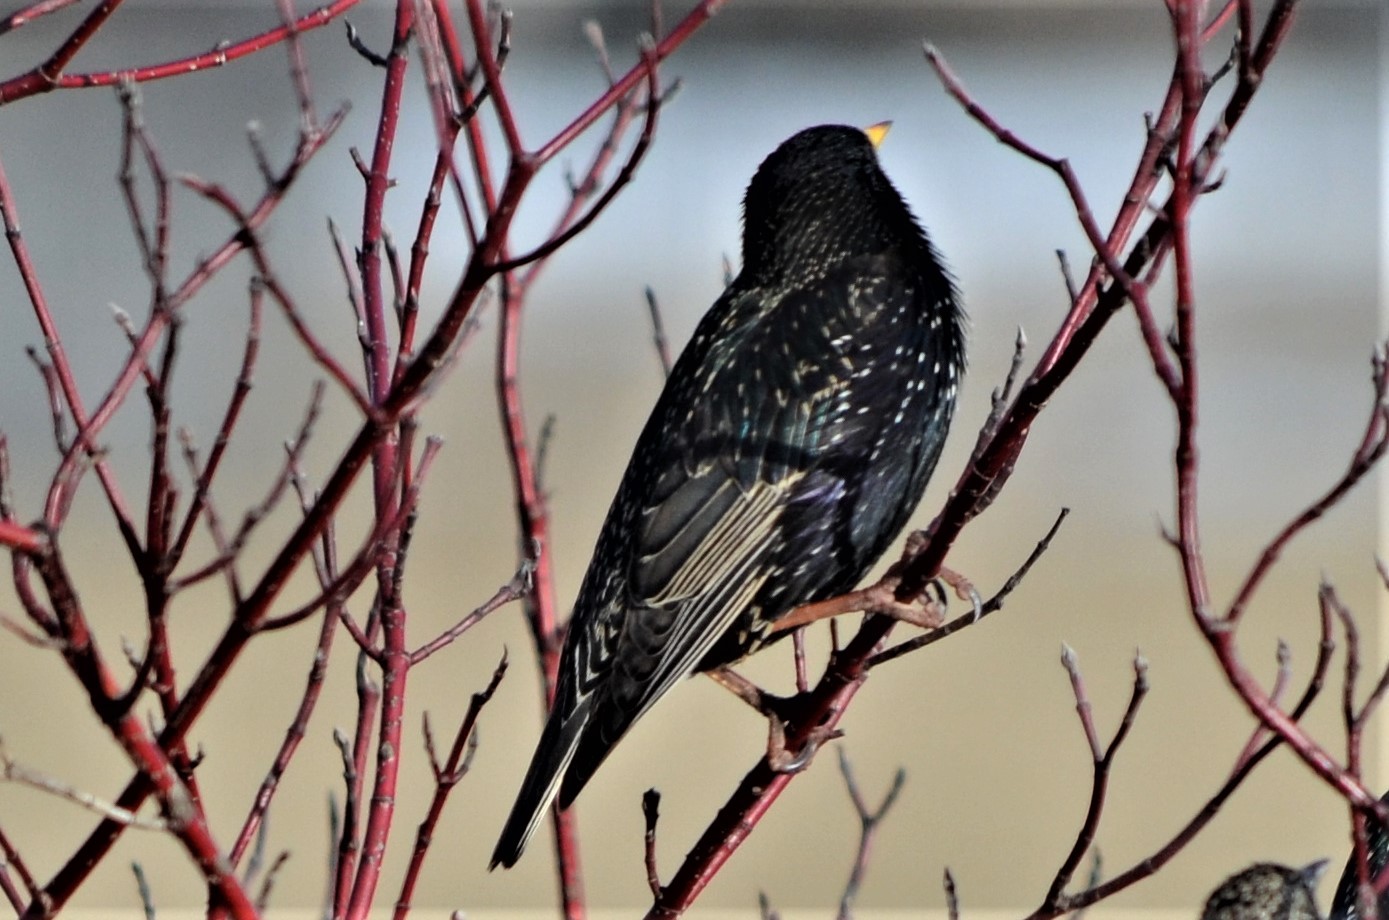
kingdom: Animalia
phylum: Chordata
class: Aves
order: Passeriformes
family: Sturnidae
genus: Sturnus
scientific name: Sturnus vulgaris
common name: Common starling
